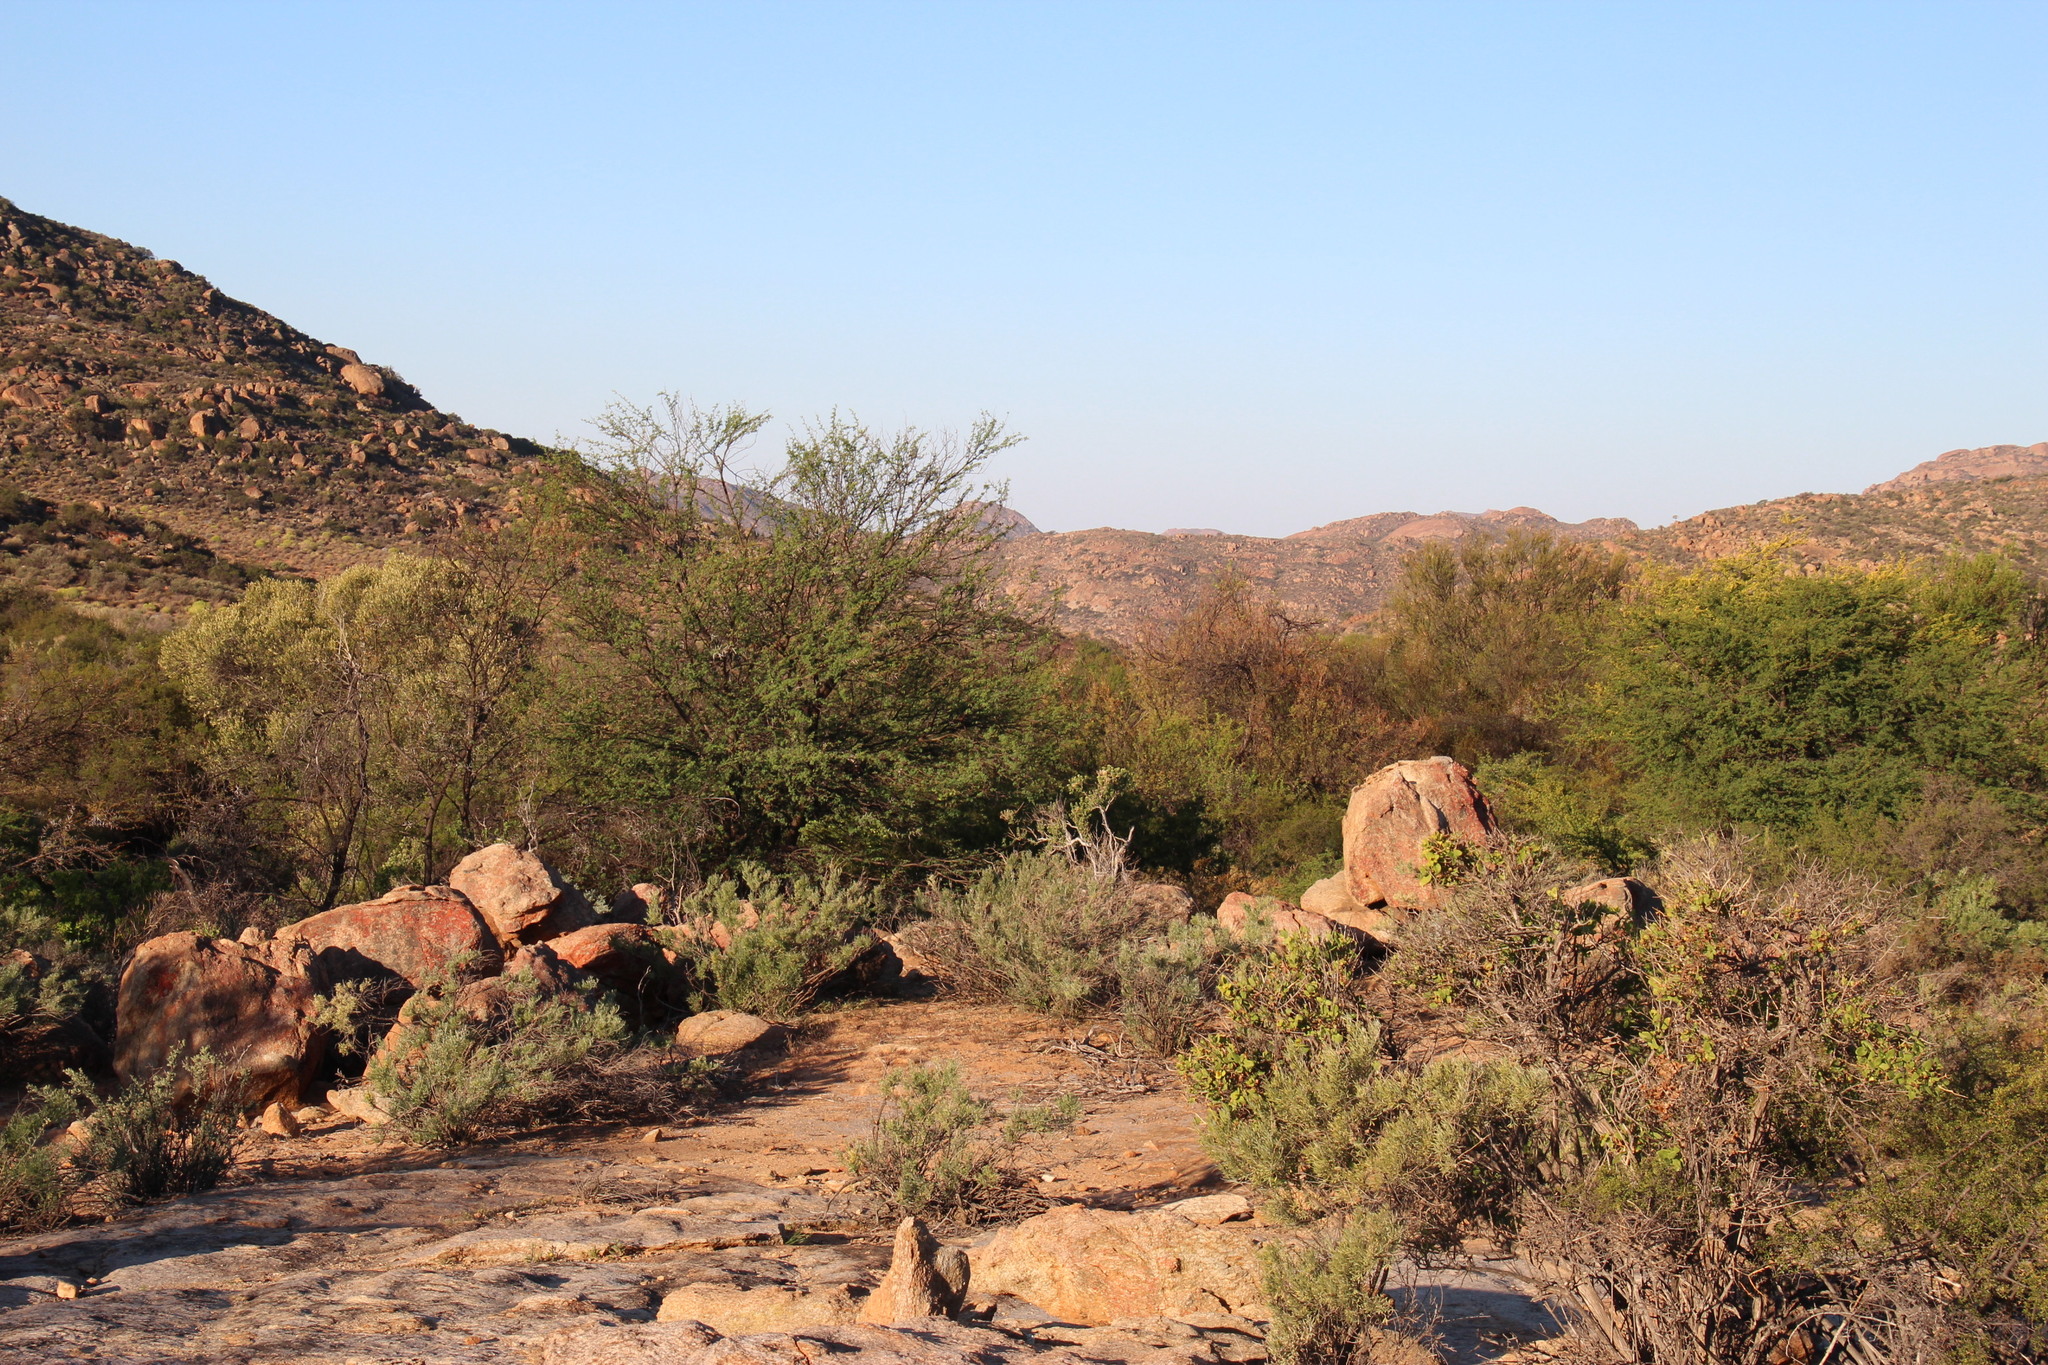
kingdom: Plantae
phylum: Tracheophyta
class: Magnoliopsida
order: Fabales
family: Fabaceae
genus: Vachellia
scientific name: Vachellia karroo
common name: Sweet thorn
